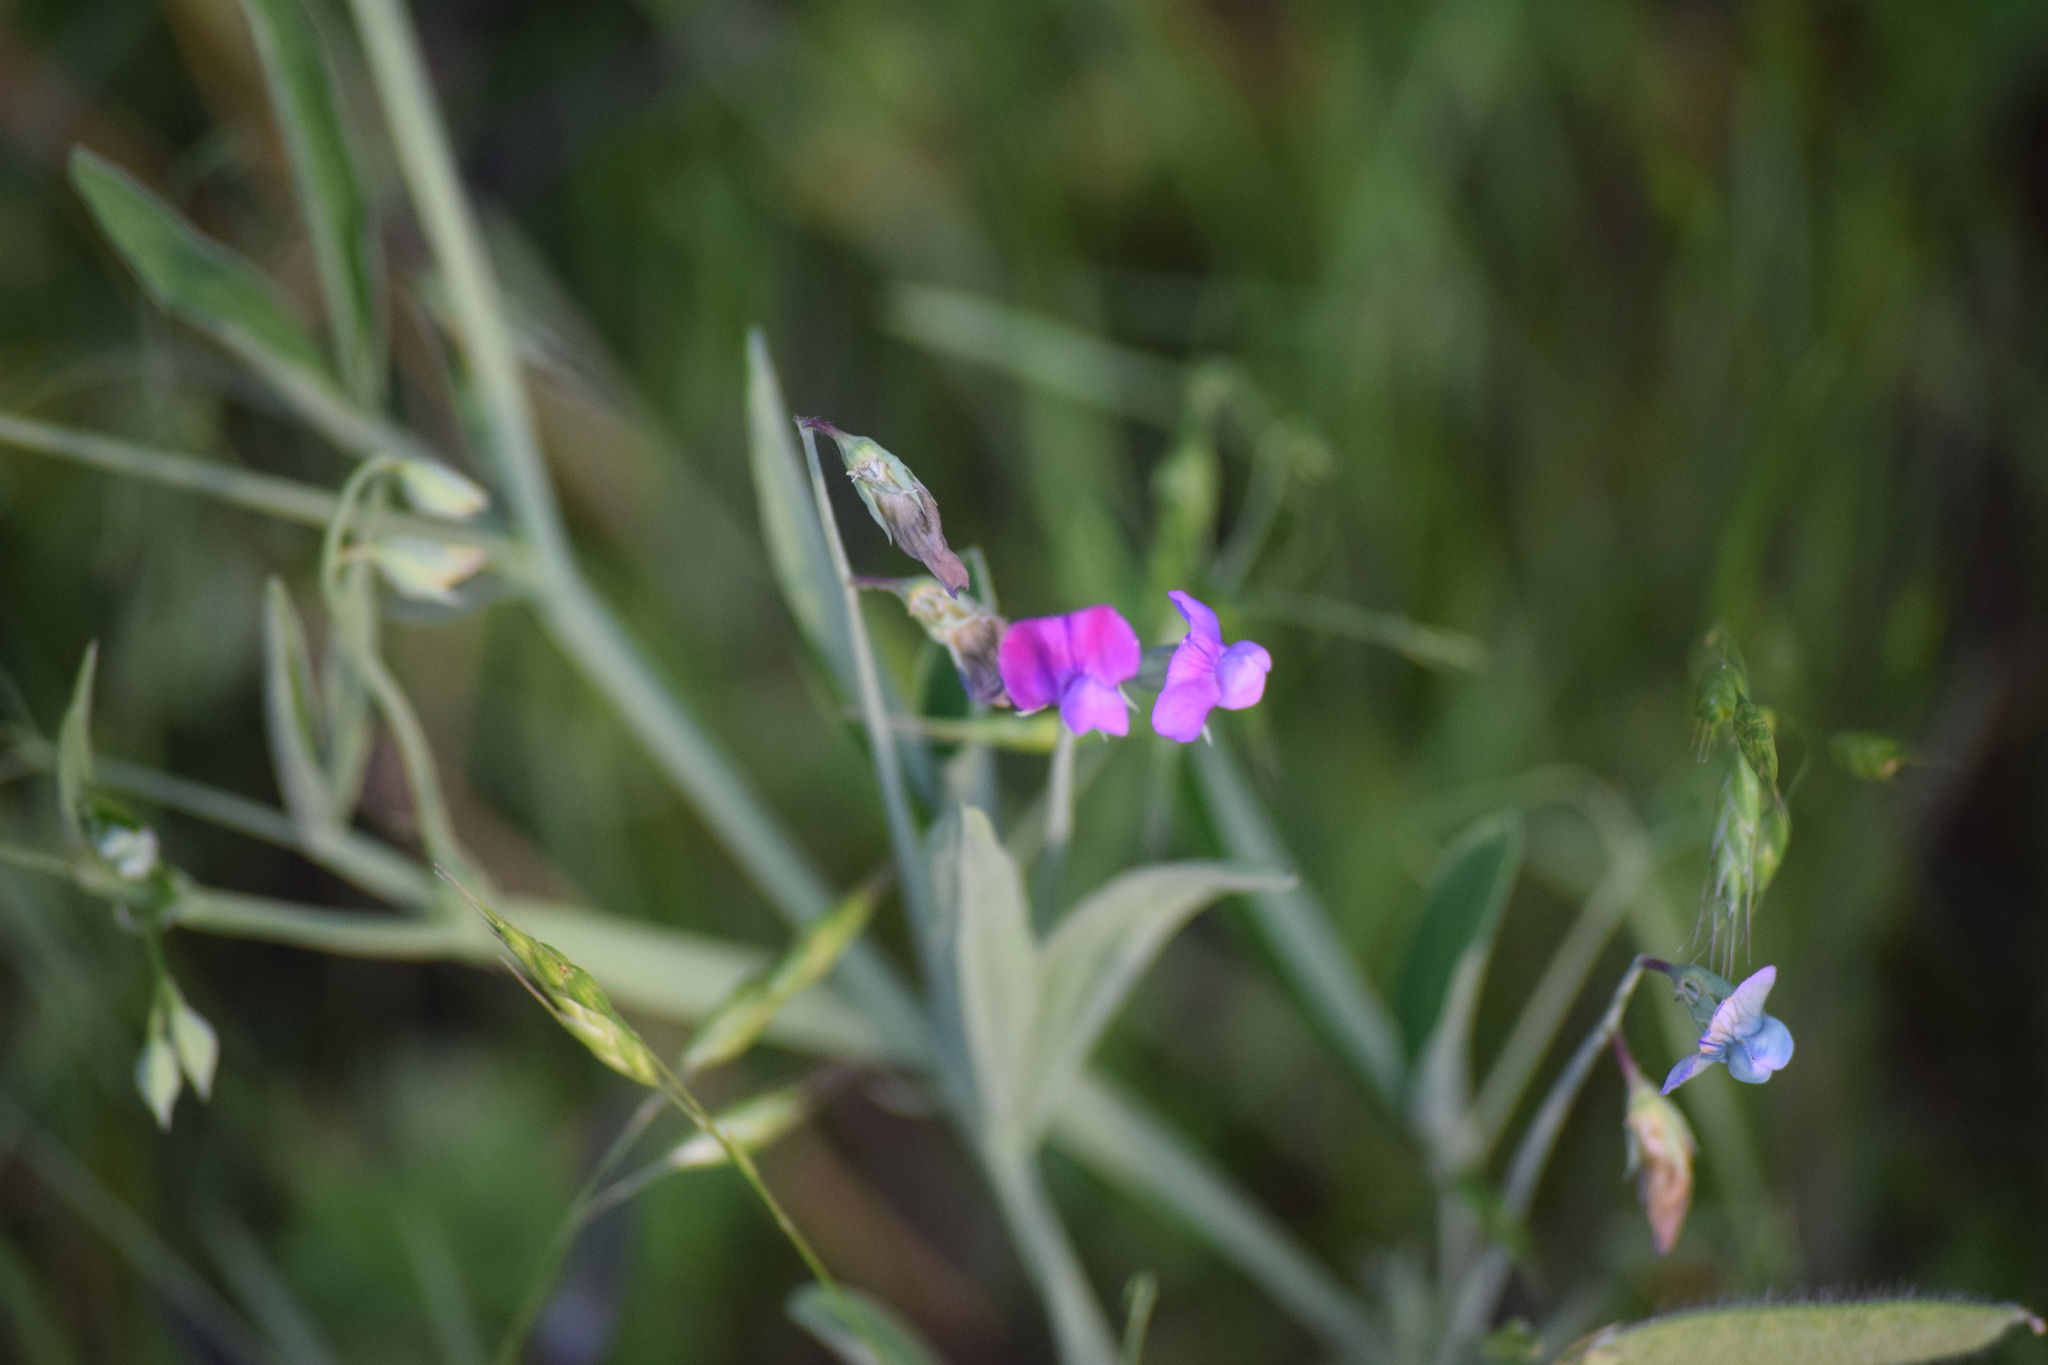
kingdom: Plantae
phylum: Tracheophyta
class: Magnoliopsida
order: Fabales
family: Fabaceae
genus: Lathyrus
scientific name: Lathyrus hirsutus
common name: Hairy vetchling
